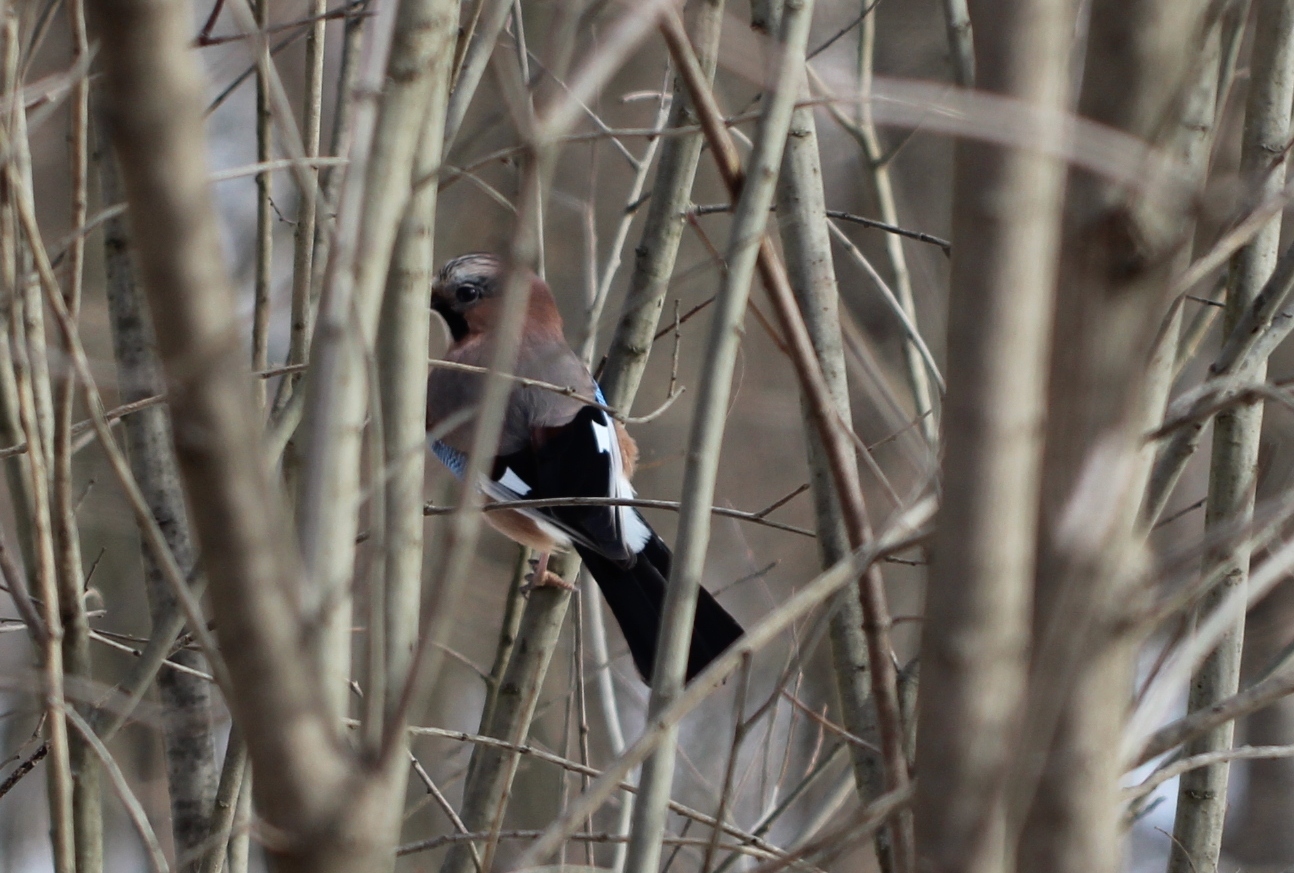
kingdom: Animalia
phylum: Chordata
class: Aves
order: Passeriformes
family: Corvidae
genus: Garrulus
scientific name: Garrulus glandarius
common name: Eurasian jay
